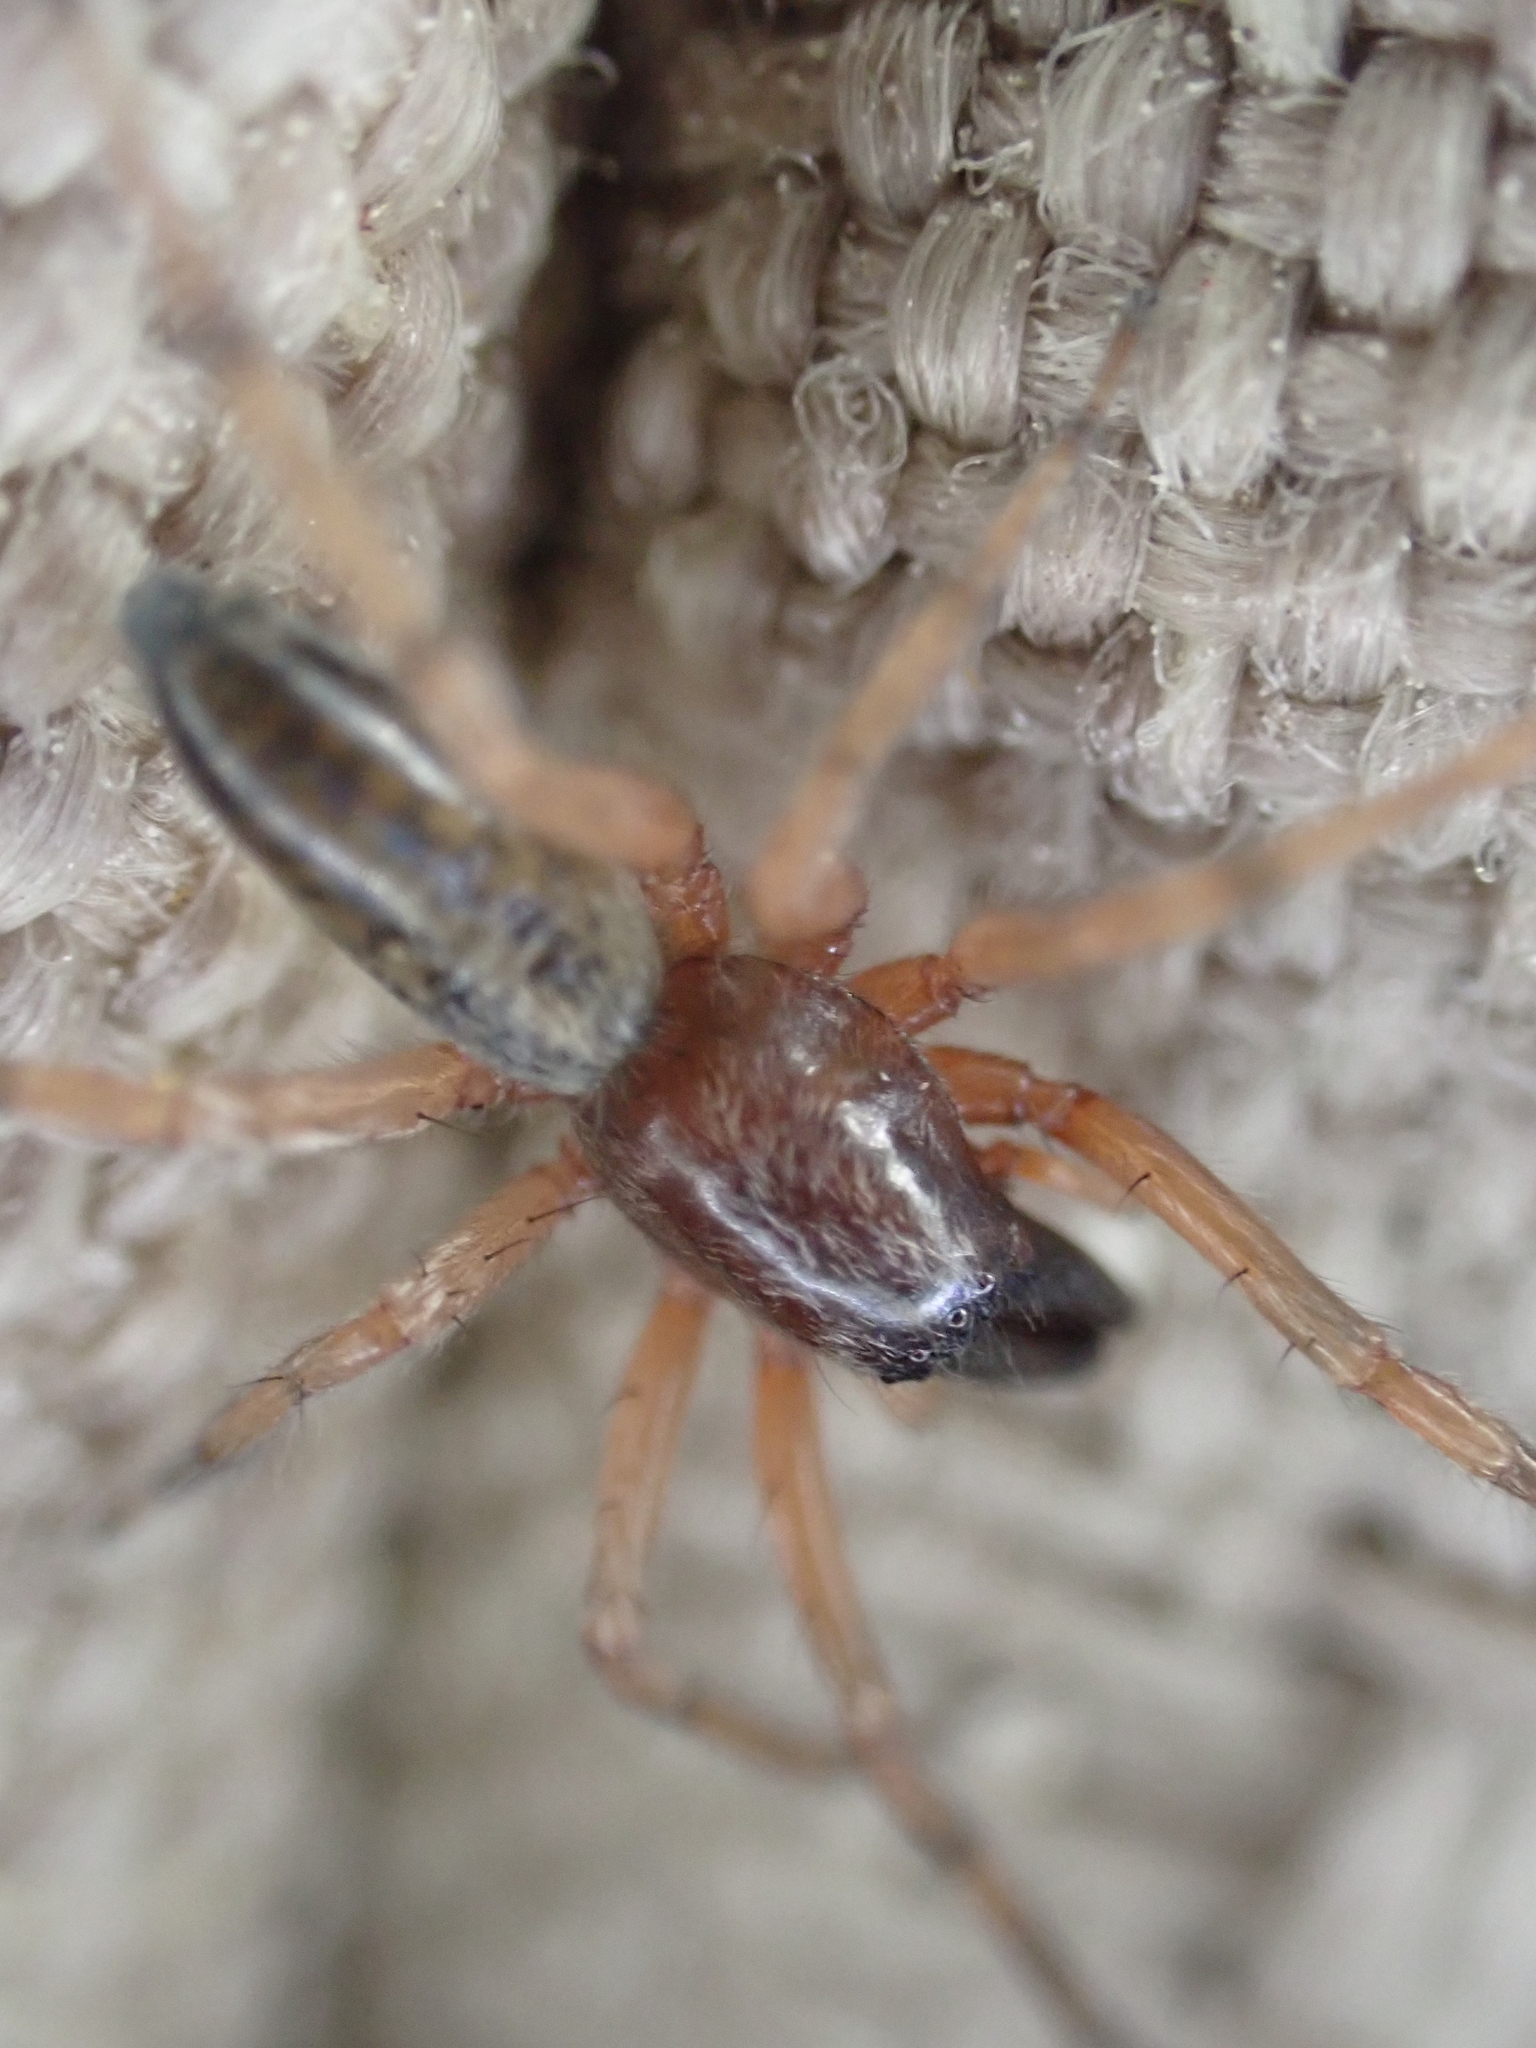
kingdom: Animalia
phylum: Arthropoda
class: Arachnida
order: Araneae
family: Anyphaenidae
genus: Lupettiana
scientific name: Lupettiana mordax
